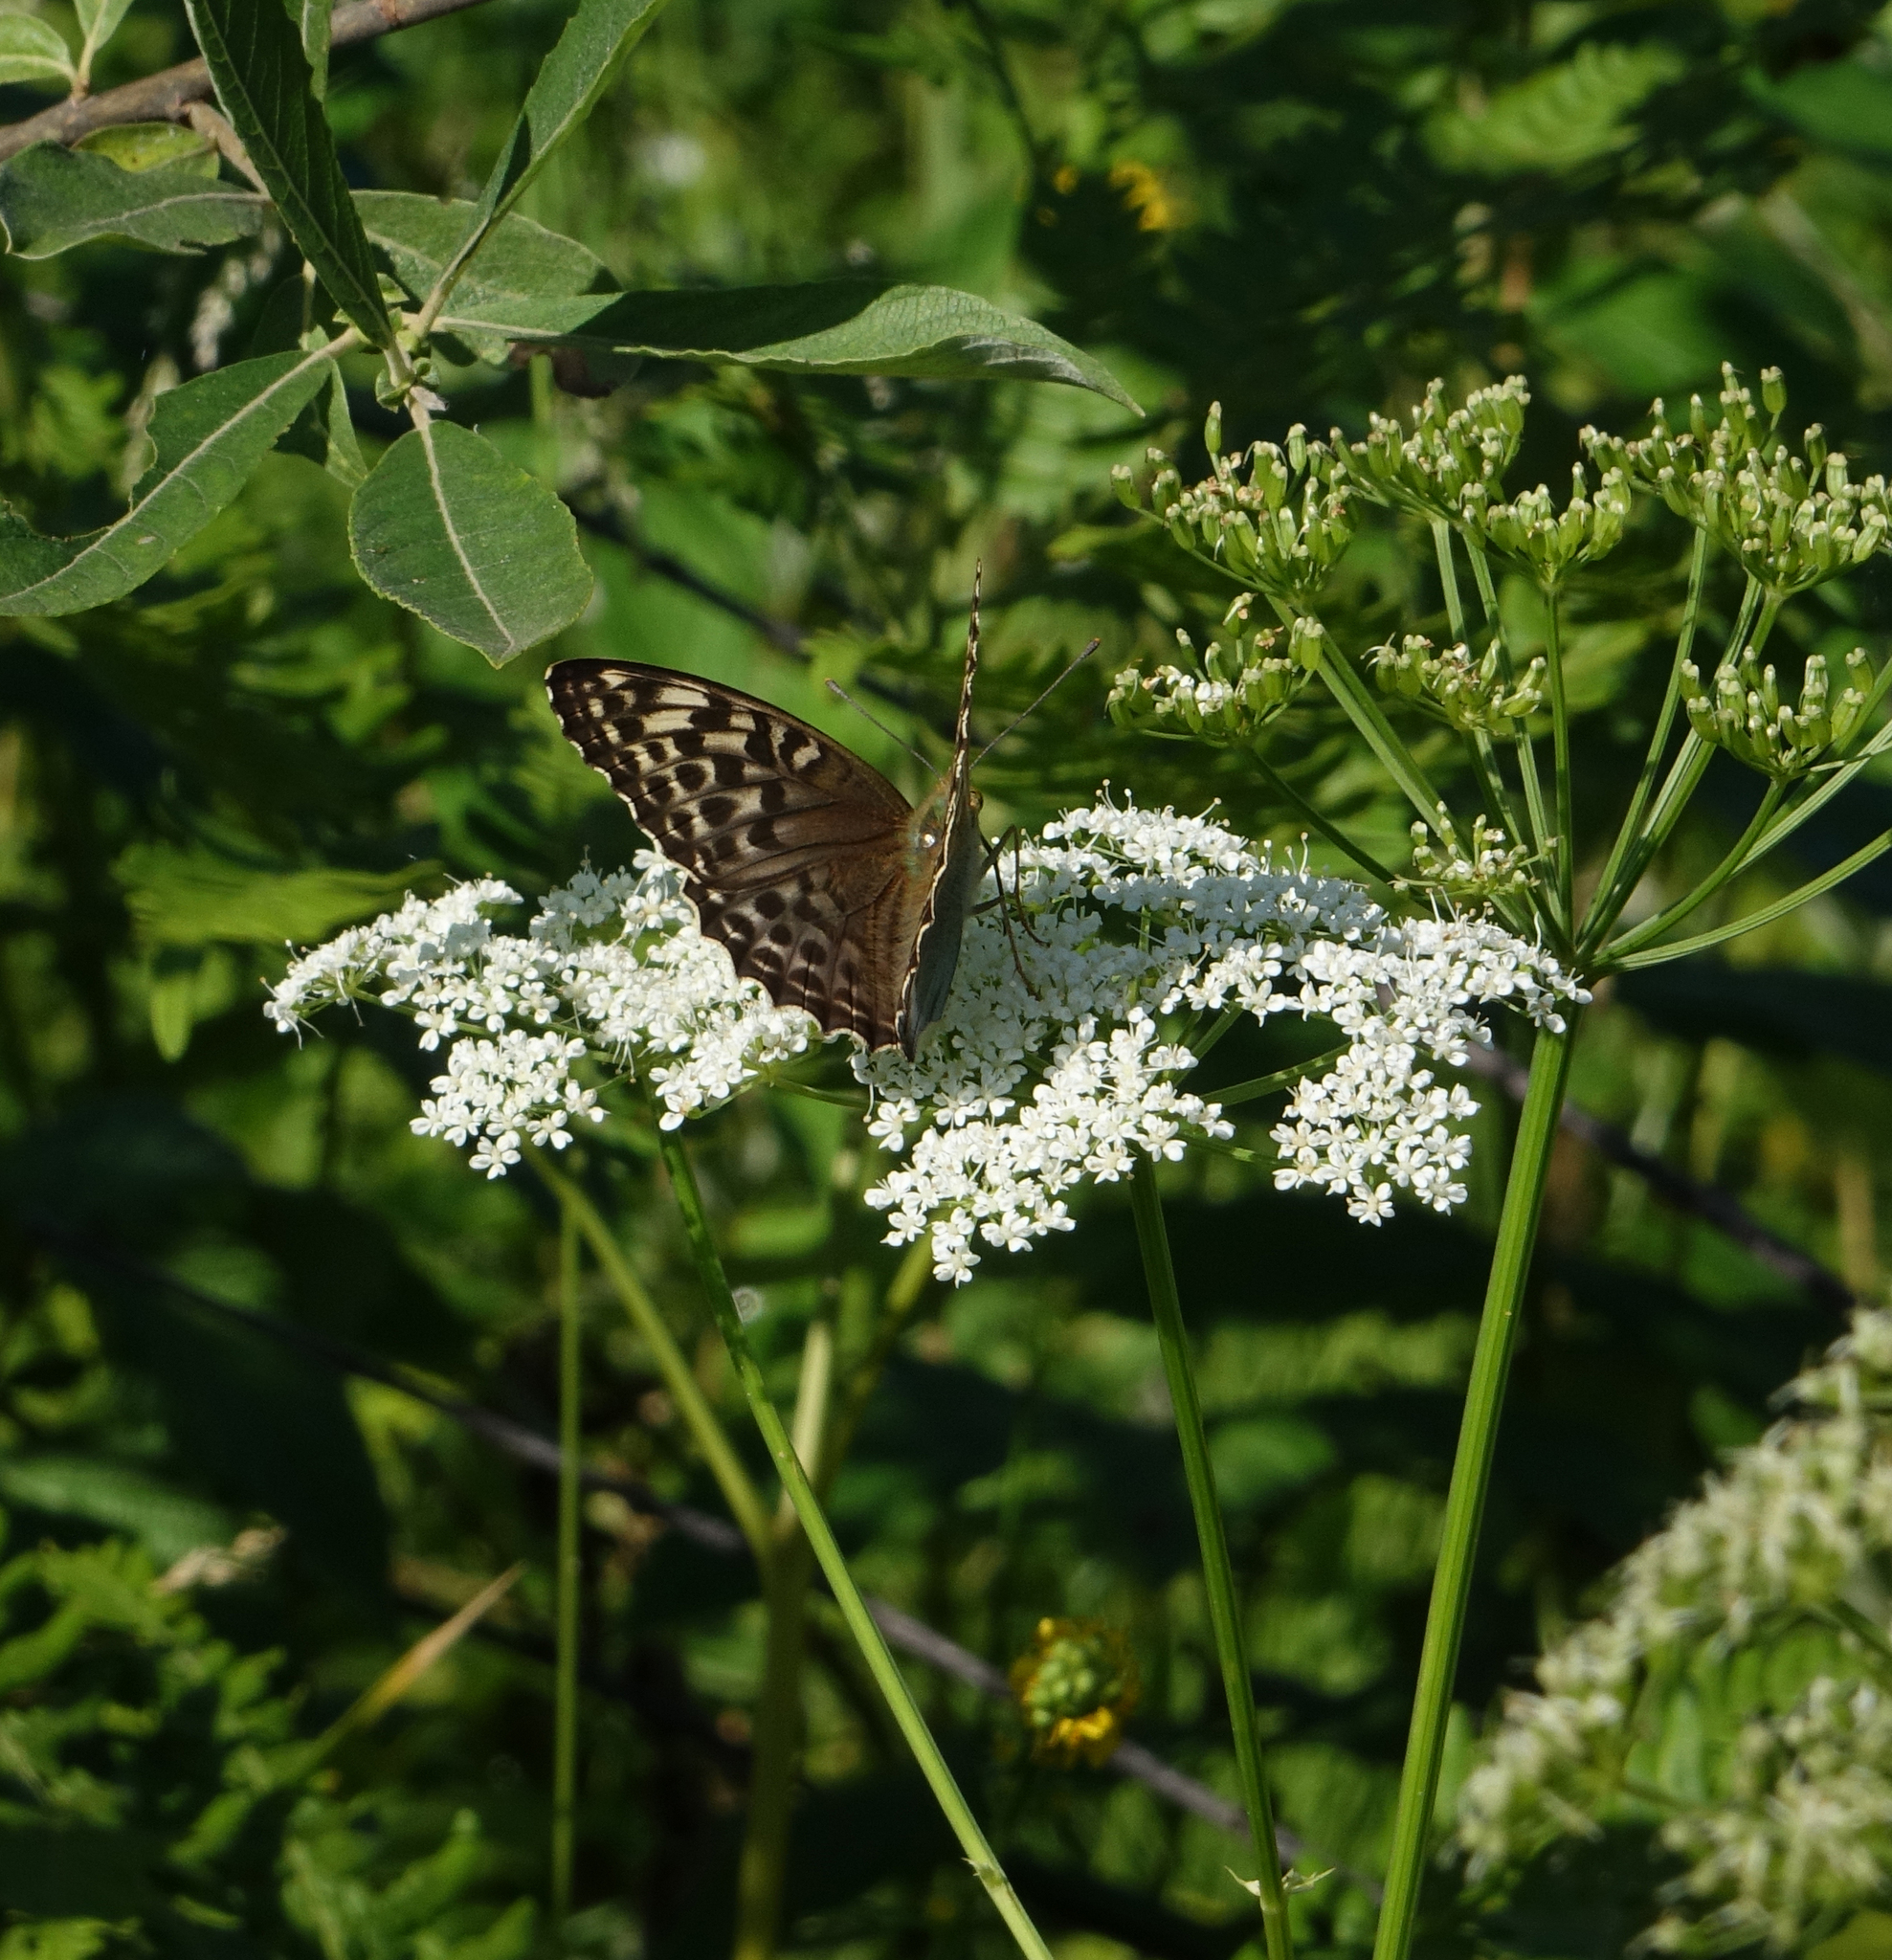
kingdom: Animalia
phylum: Arthropoda
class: Insecta
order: Lepidoptera
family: Nymphalidae
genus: Argynnis
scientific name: Argynnis paphia
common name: Silver-washed fritillary
